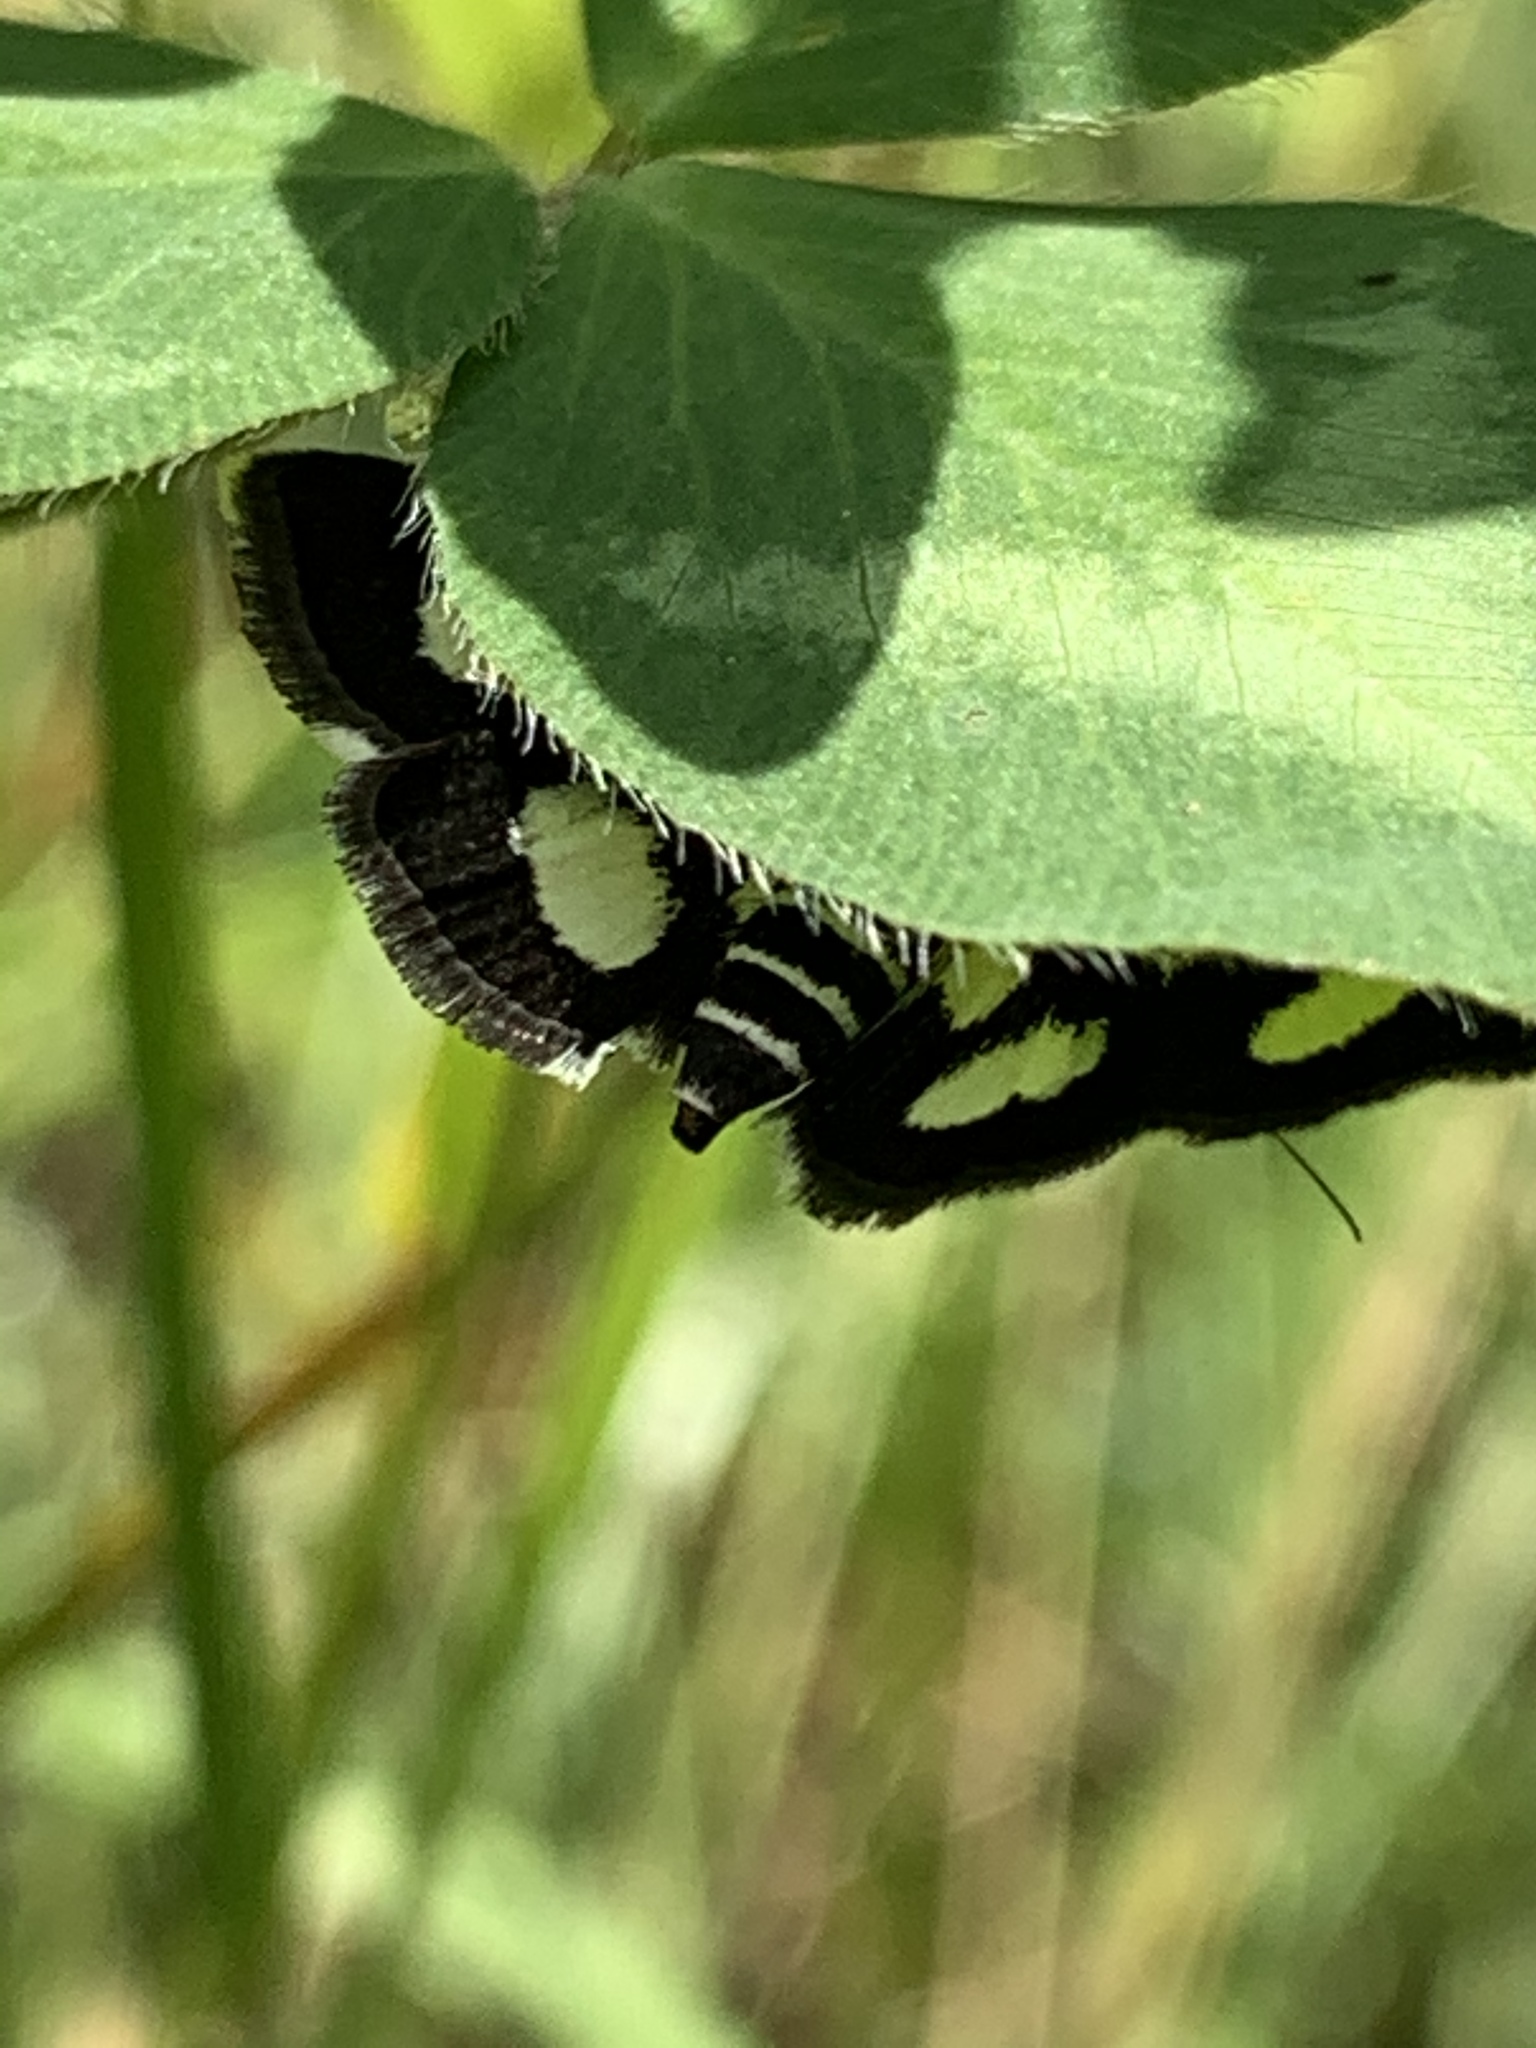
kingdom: Animalia
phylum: Arthropoda
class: Insecta
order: Lepidoptera
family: Crambidae
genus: Anania
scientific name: Anania funebris
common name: White-spotted sable moth
